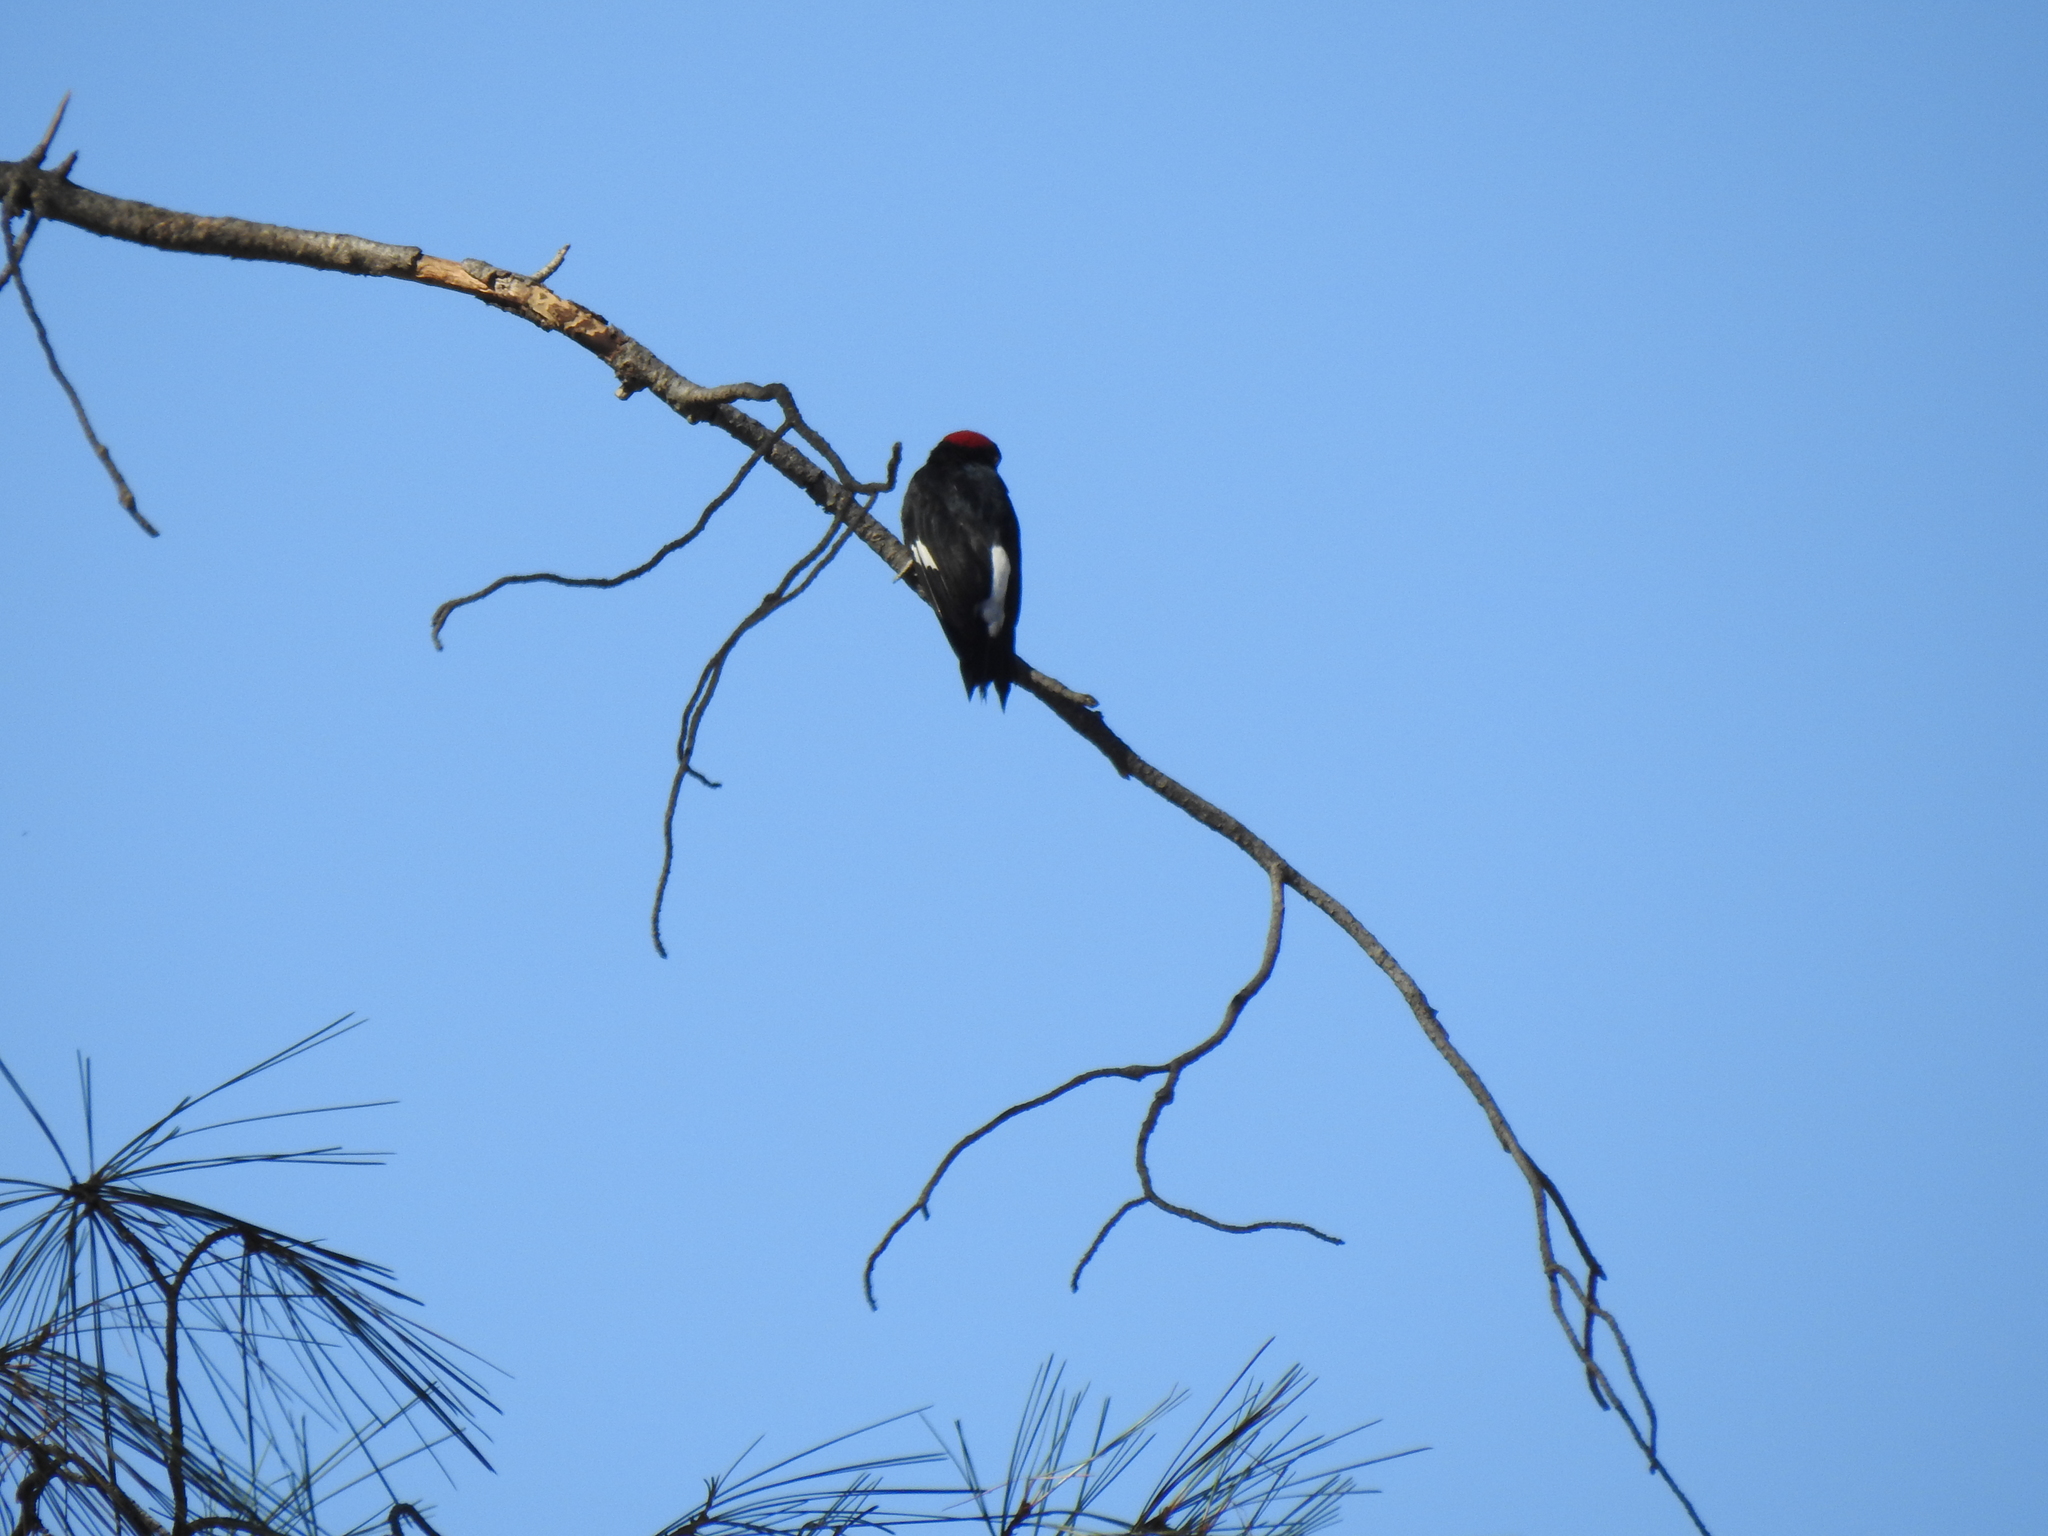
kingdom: Animalia
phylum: Chordata
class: Aves
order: Piciformes
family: Picidae
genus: Melanerpes
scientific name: Melanerpes formicivorus
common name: Acorn woodpecker
